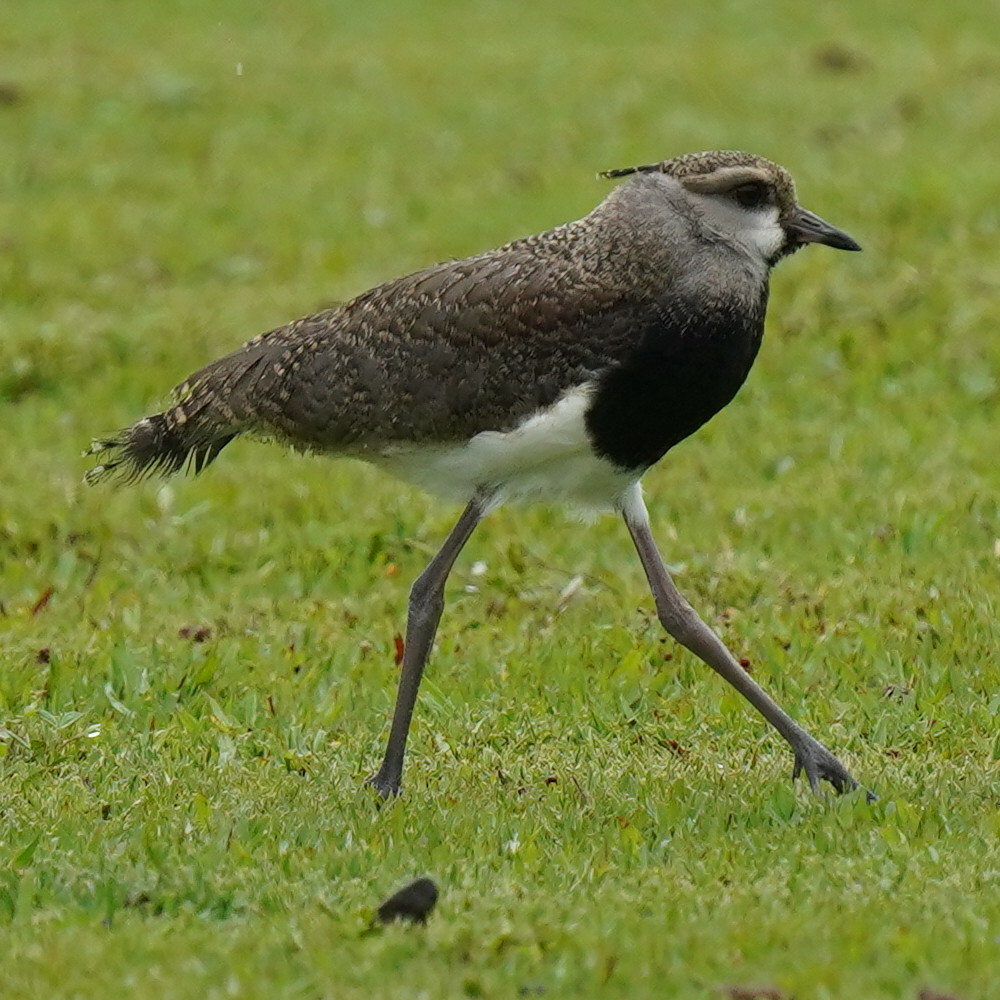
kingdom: Animalia
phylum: Chordata
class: Aves
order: Charadriiformes
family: Charadriidae
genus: Vanellus
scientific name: Vanellus chilensis
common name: Southern lapwing
